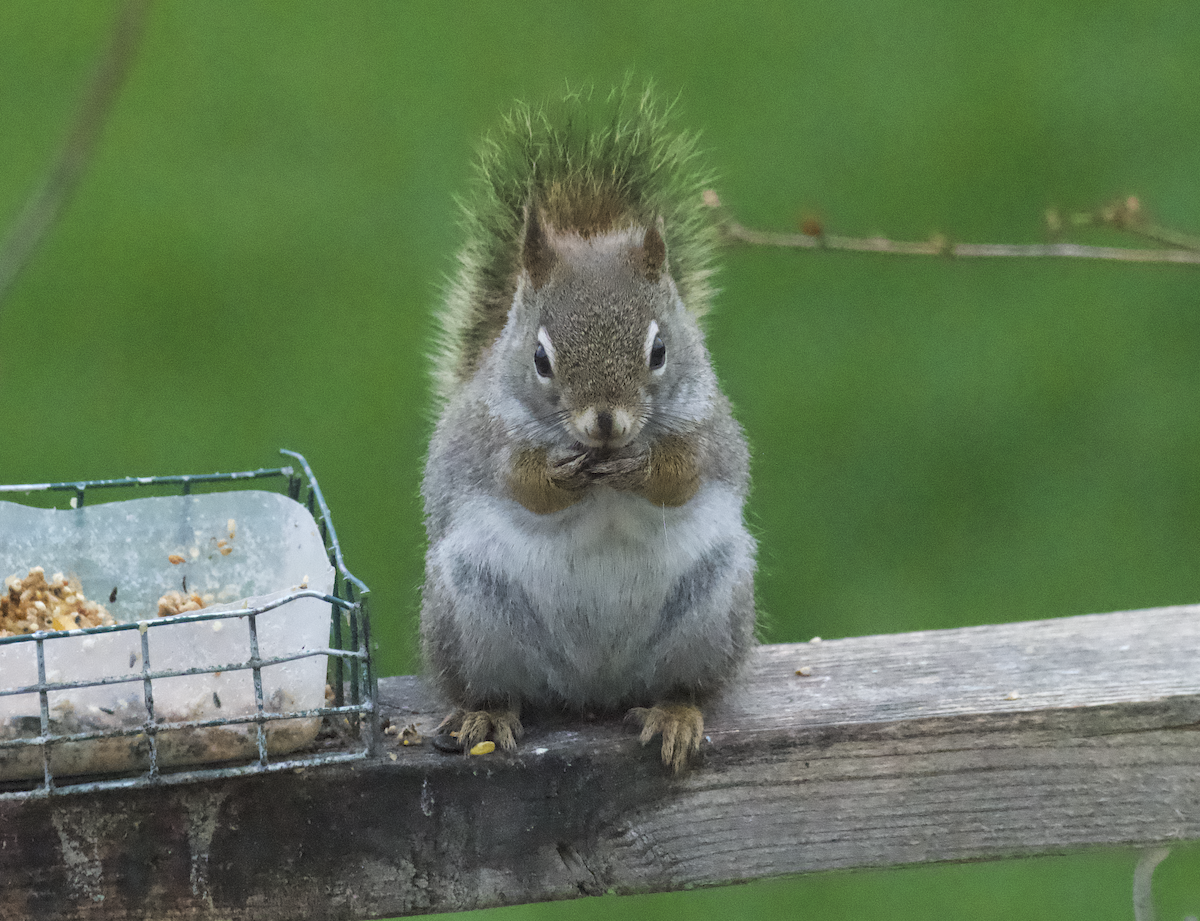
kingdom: Animalia
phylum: Chordata
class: Mammalia
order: Rodentia
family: Sciuridae
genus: Tamiasciurus
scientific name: Tamiasciurus hudsonicus
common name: Red squirrel
